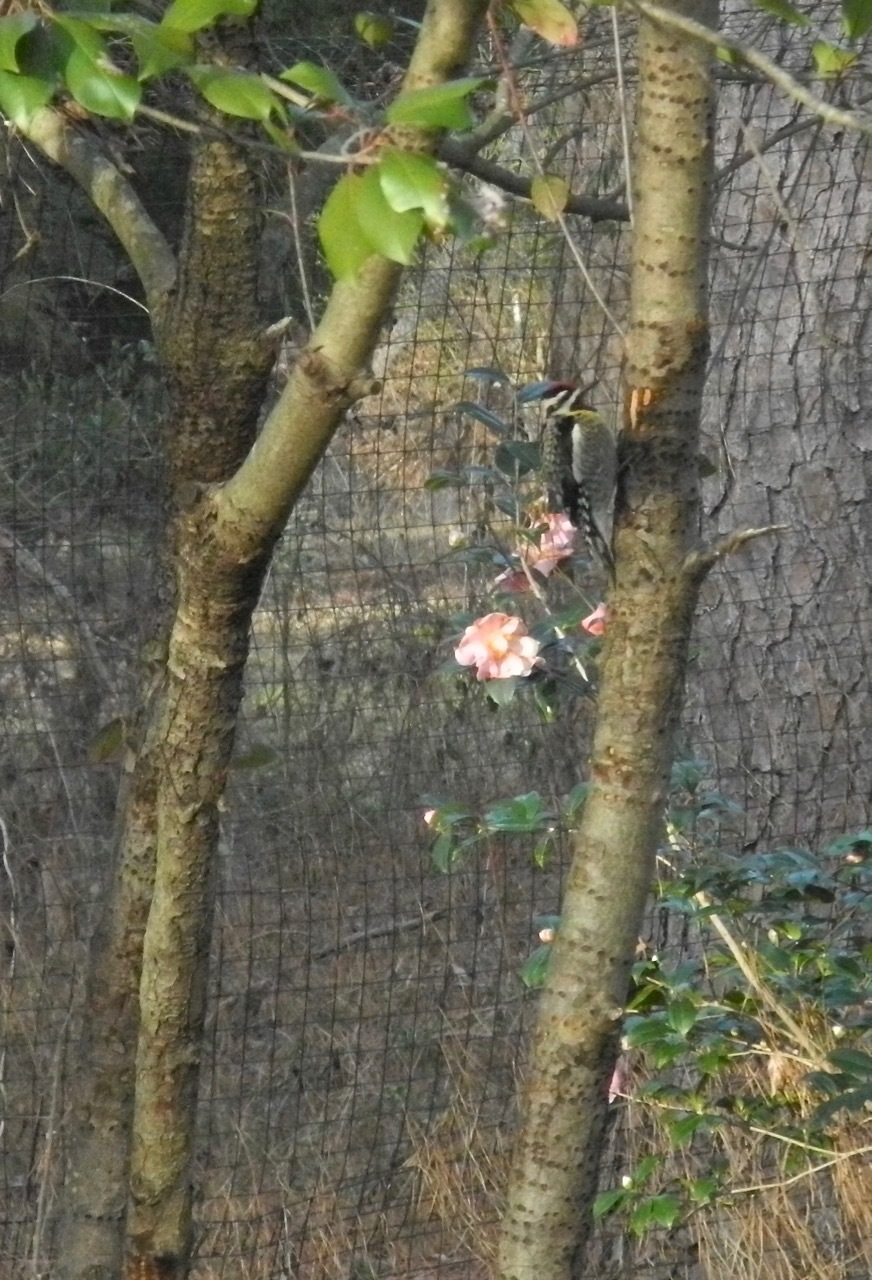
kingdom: Animalia
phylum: Chordata
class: Aves
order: Piciformes
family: Picidae
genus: Sphyrapicus
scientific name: Sphyrapicus varius
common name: Yellow-bellied sapsucker
